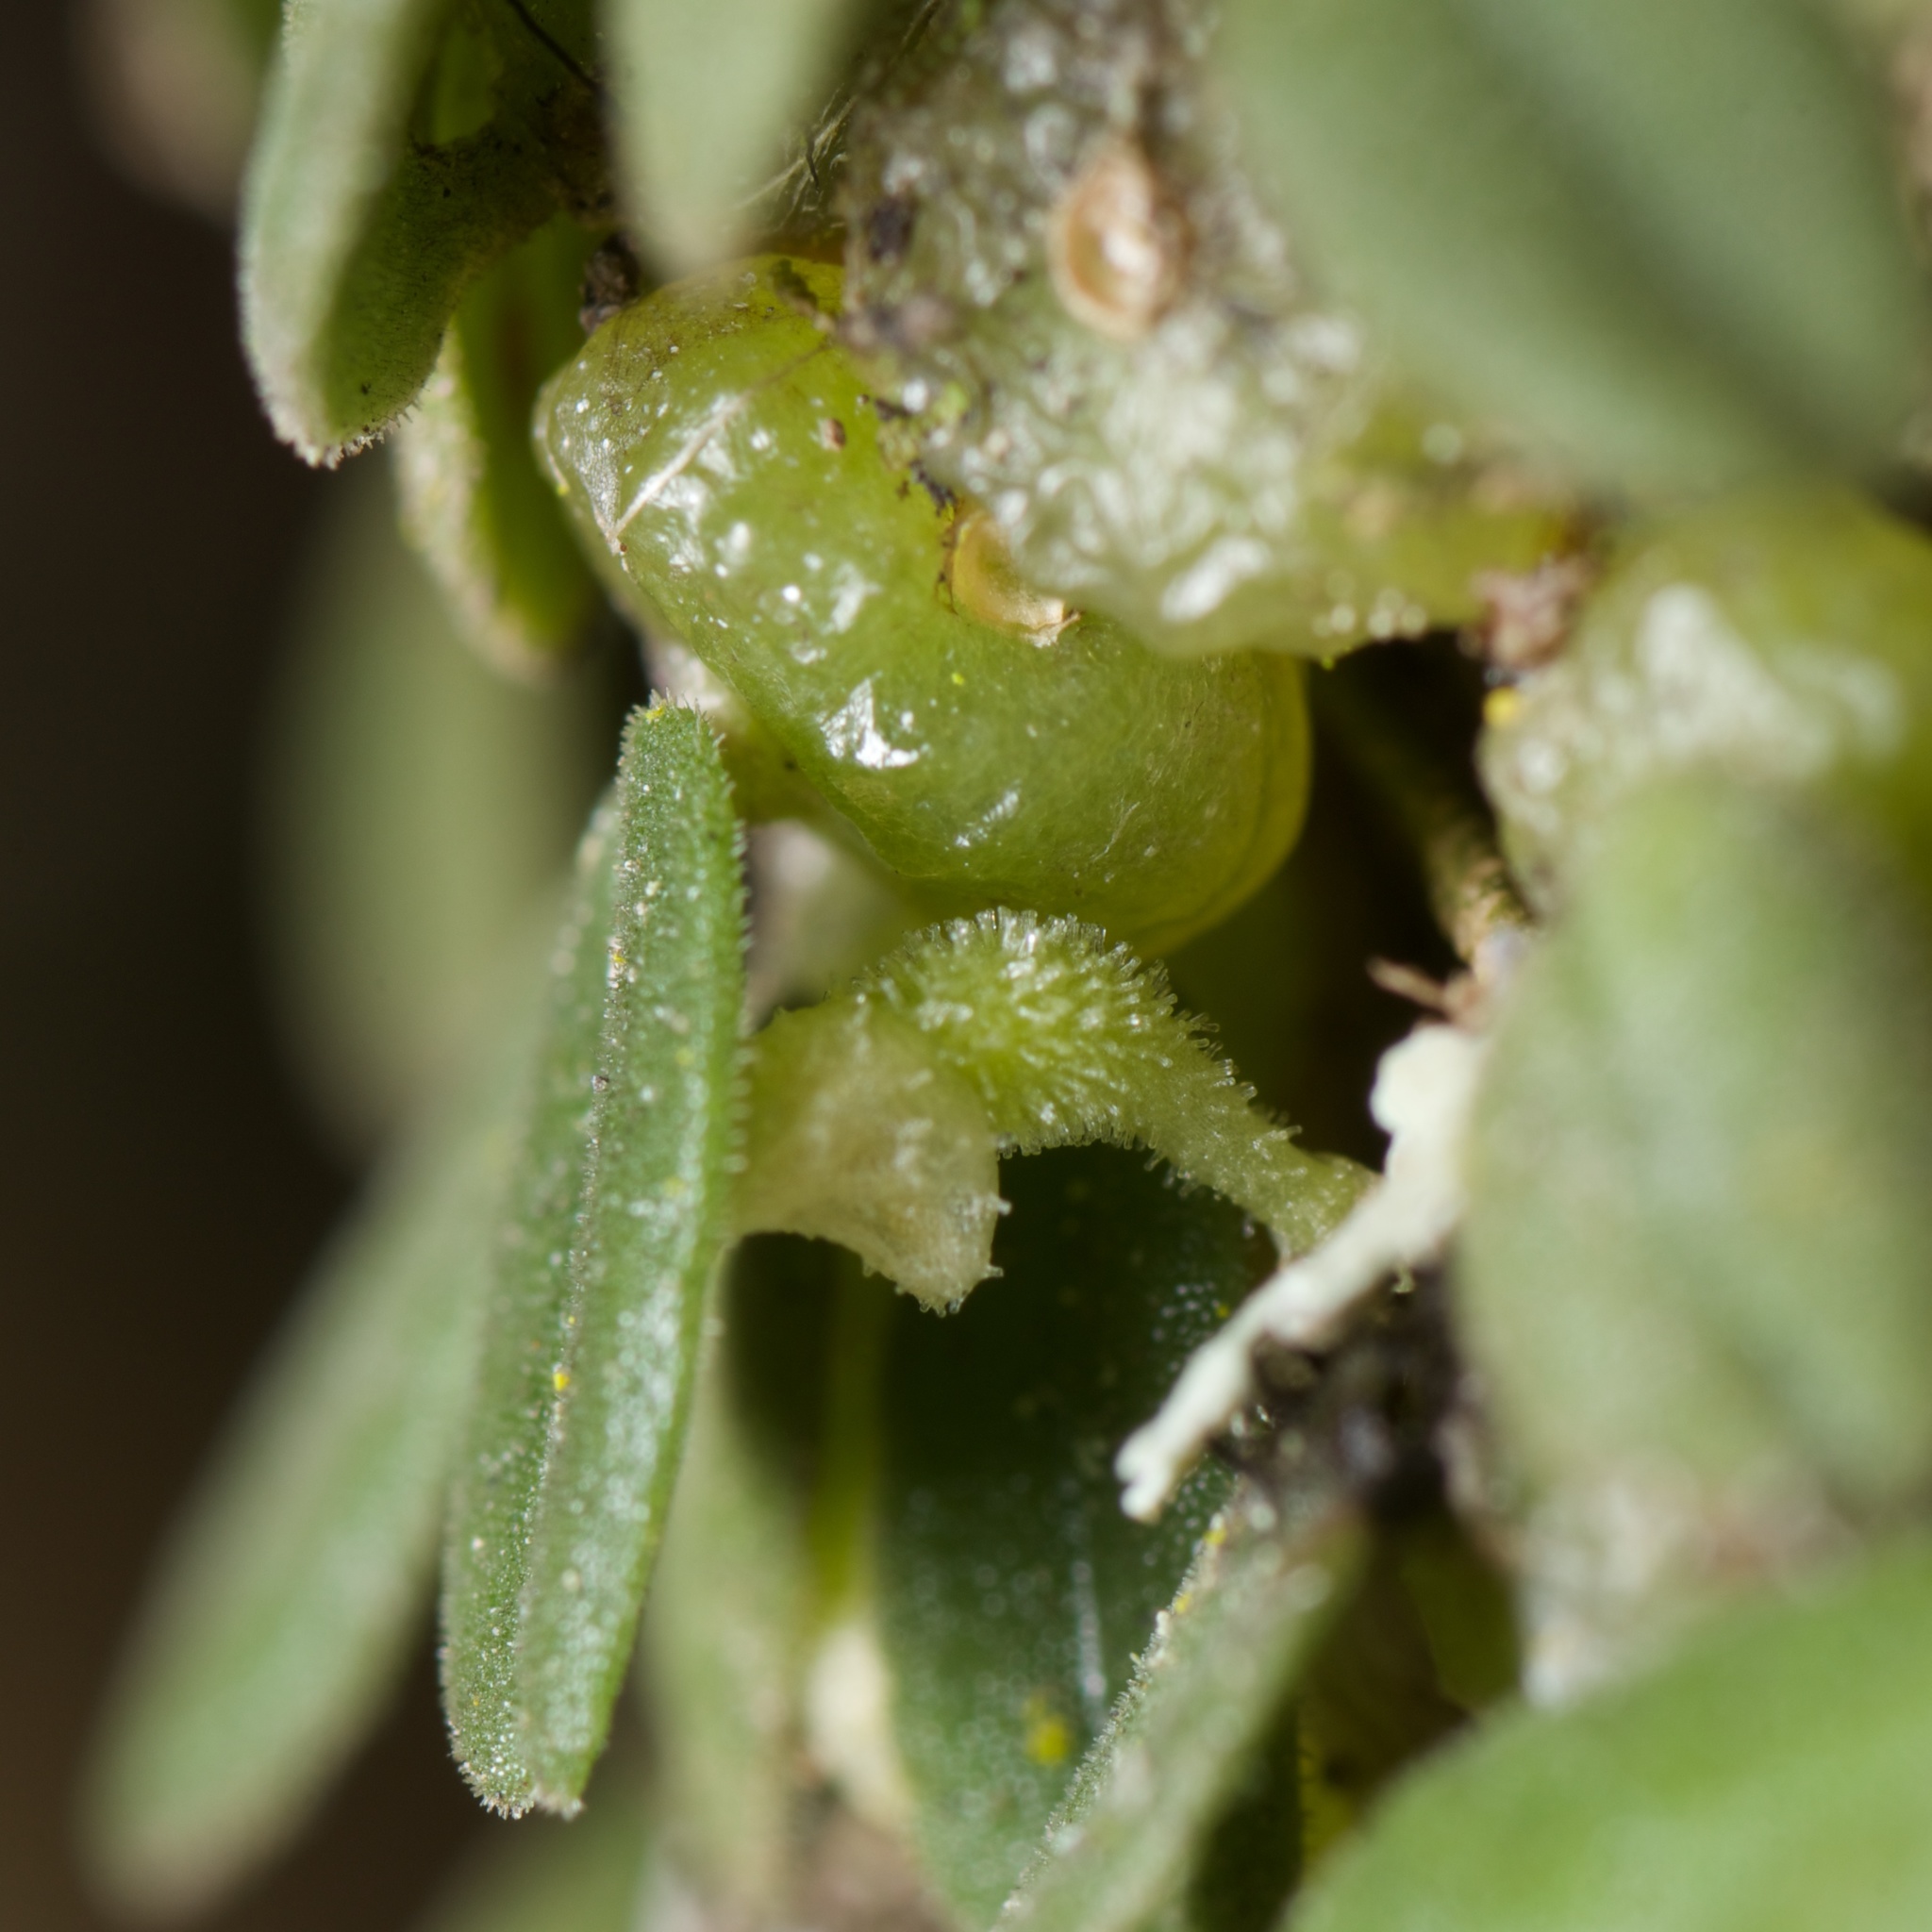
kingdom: Plantae
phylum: Tracheophyta
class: Liliopsida
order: Asparagales
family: Orchidaceae
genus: Bulbophyllum
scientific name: Bulbophyllum pygmaeum
